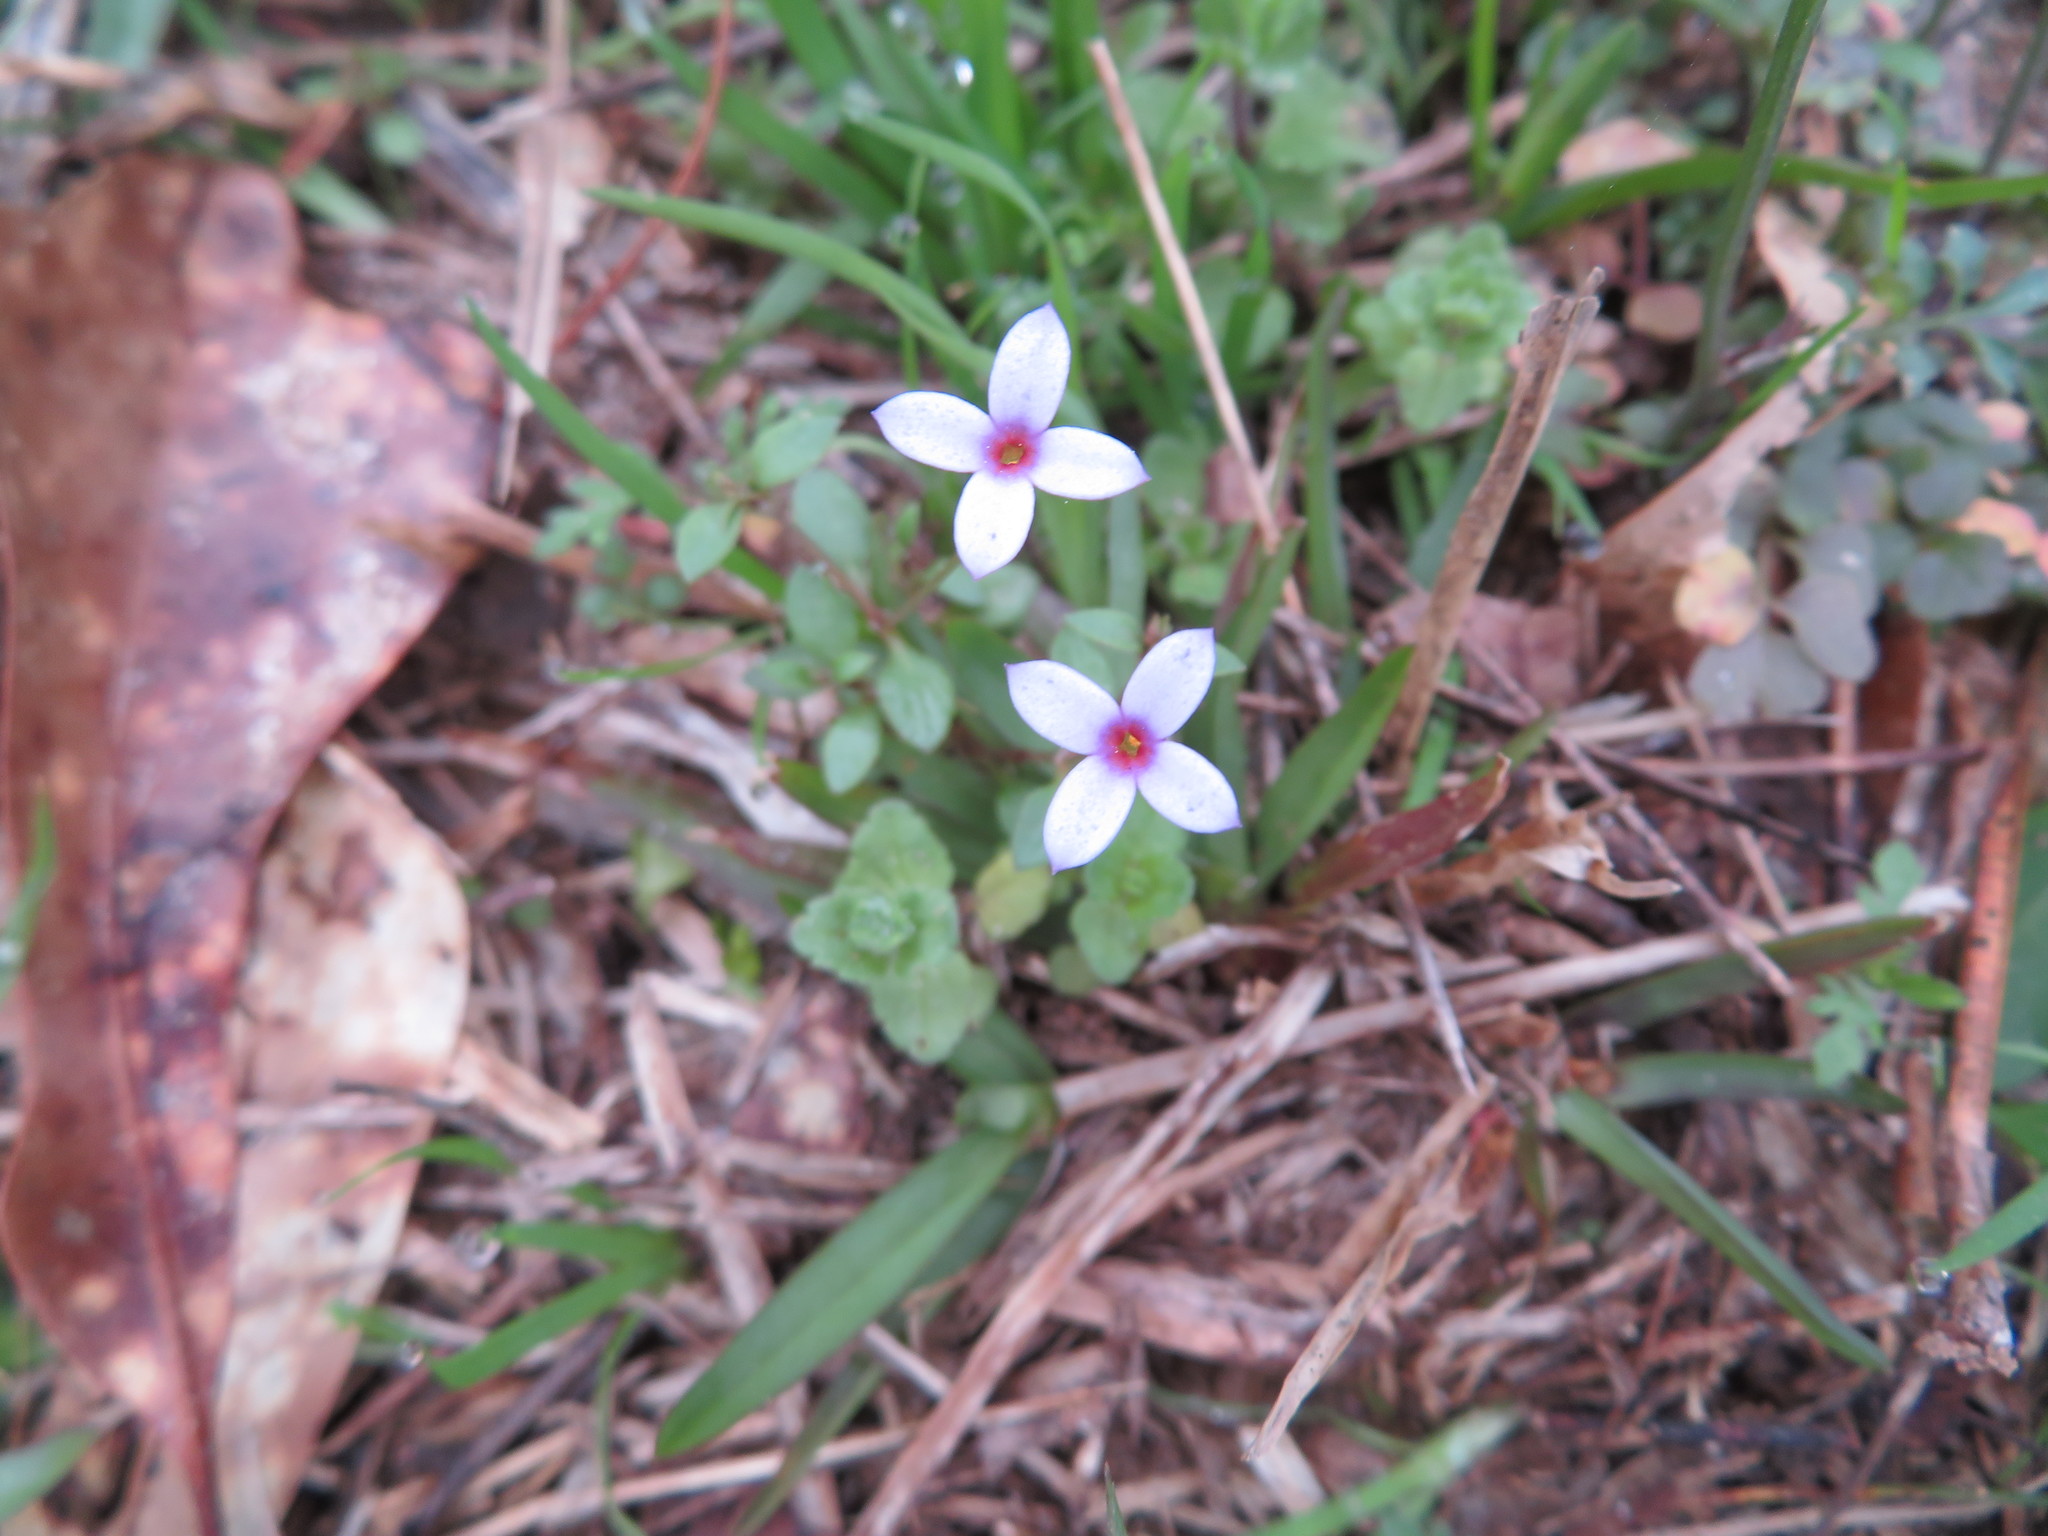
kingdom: Plantae
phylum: Tracheophyta
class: Magnoliopsida
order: Gentianales
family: Rubiaceae
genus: Houstonia
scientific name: Houstonia pusilla
